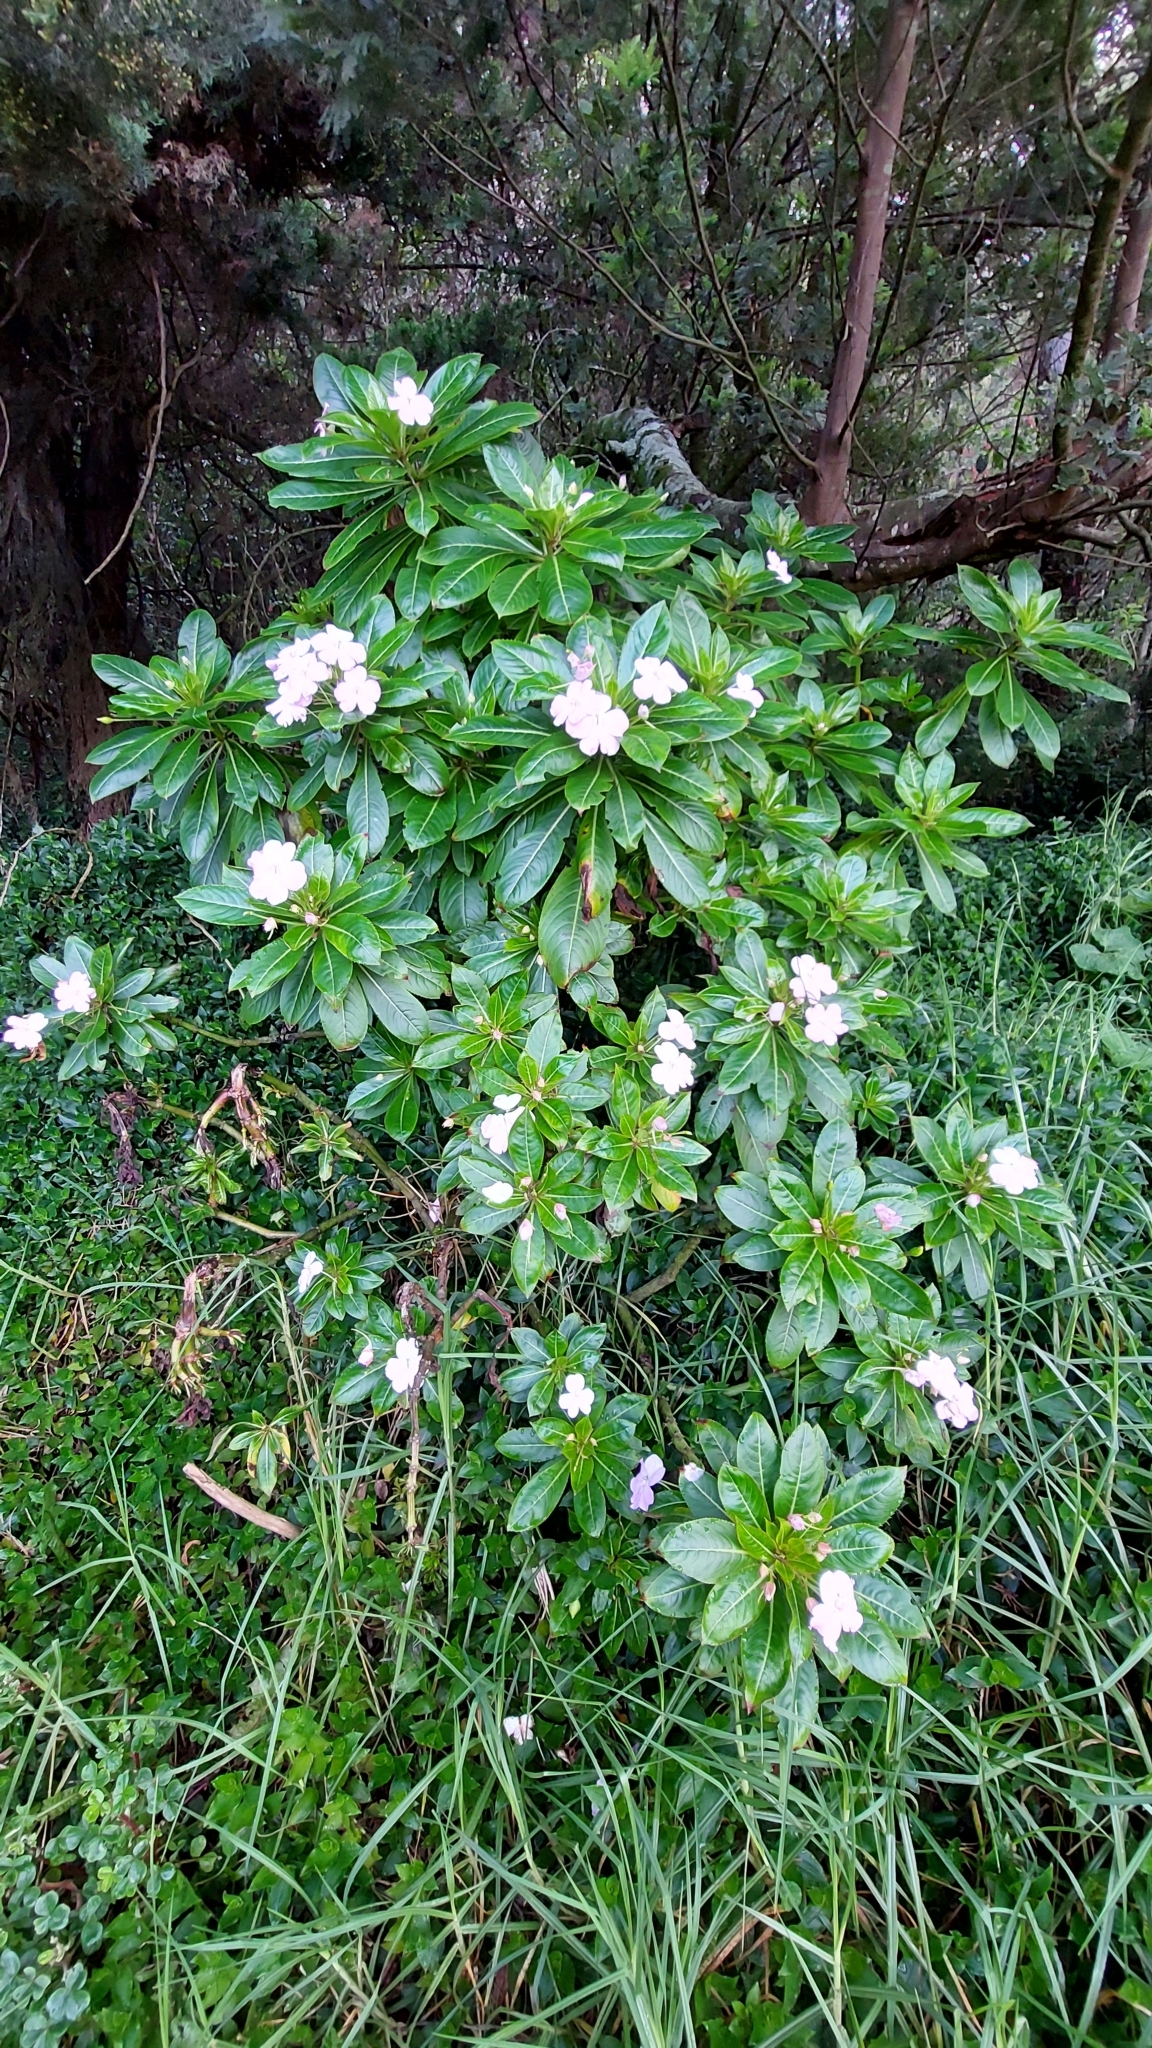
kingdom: Plantae
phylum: Tracheophyta
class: Magnoliopsida
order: Ericales
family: Balsaminaceae
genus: Impatiens
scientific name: Impatiens sodenii
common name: Oliver's touch-me-not
